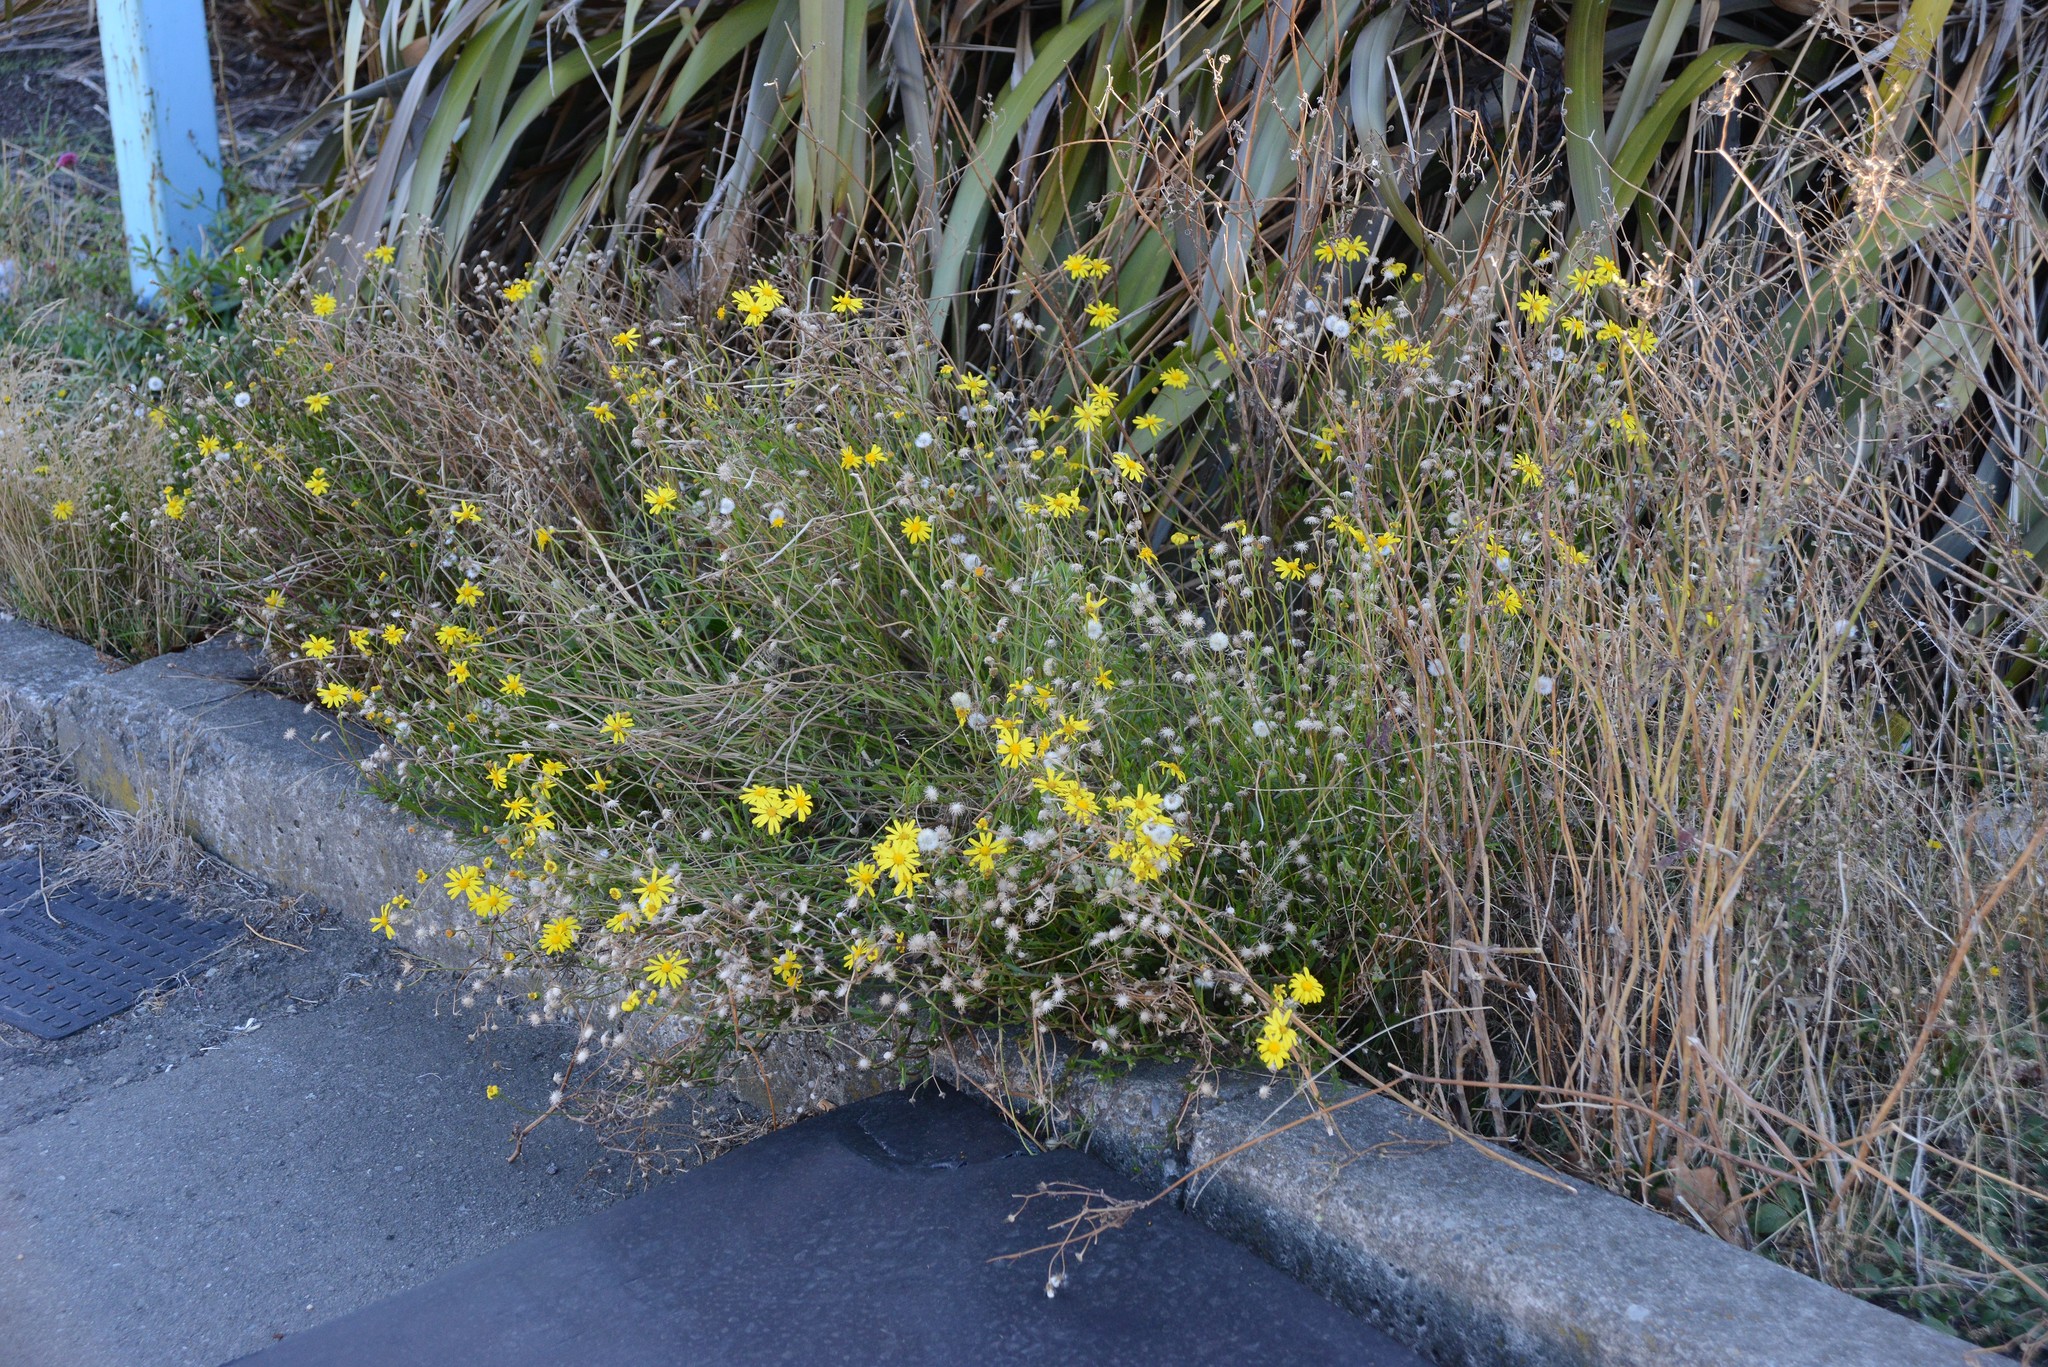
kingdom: Plantae
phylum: Tracheophyta
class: Magnoliopsida
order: Asterales
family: Asteraceae
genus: Senecio
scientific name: Senecio skirrhodon
